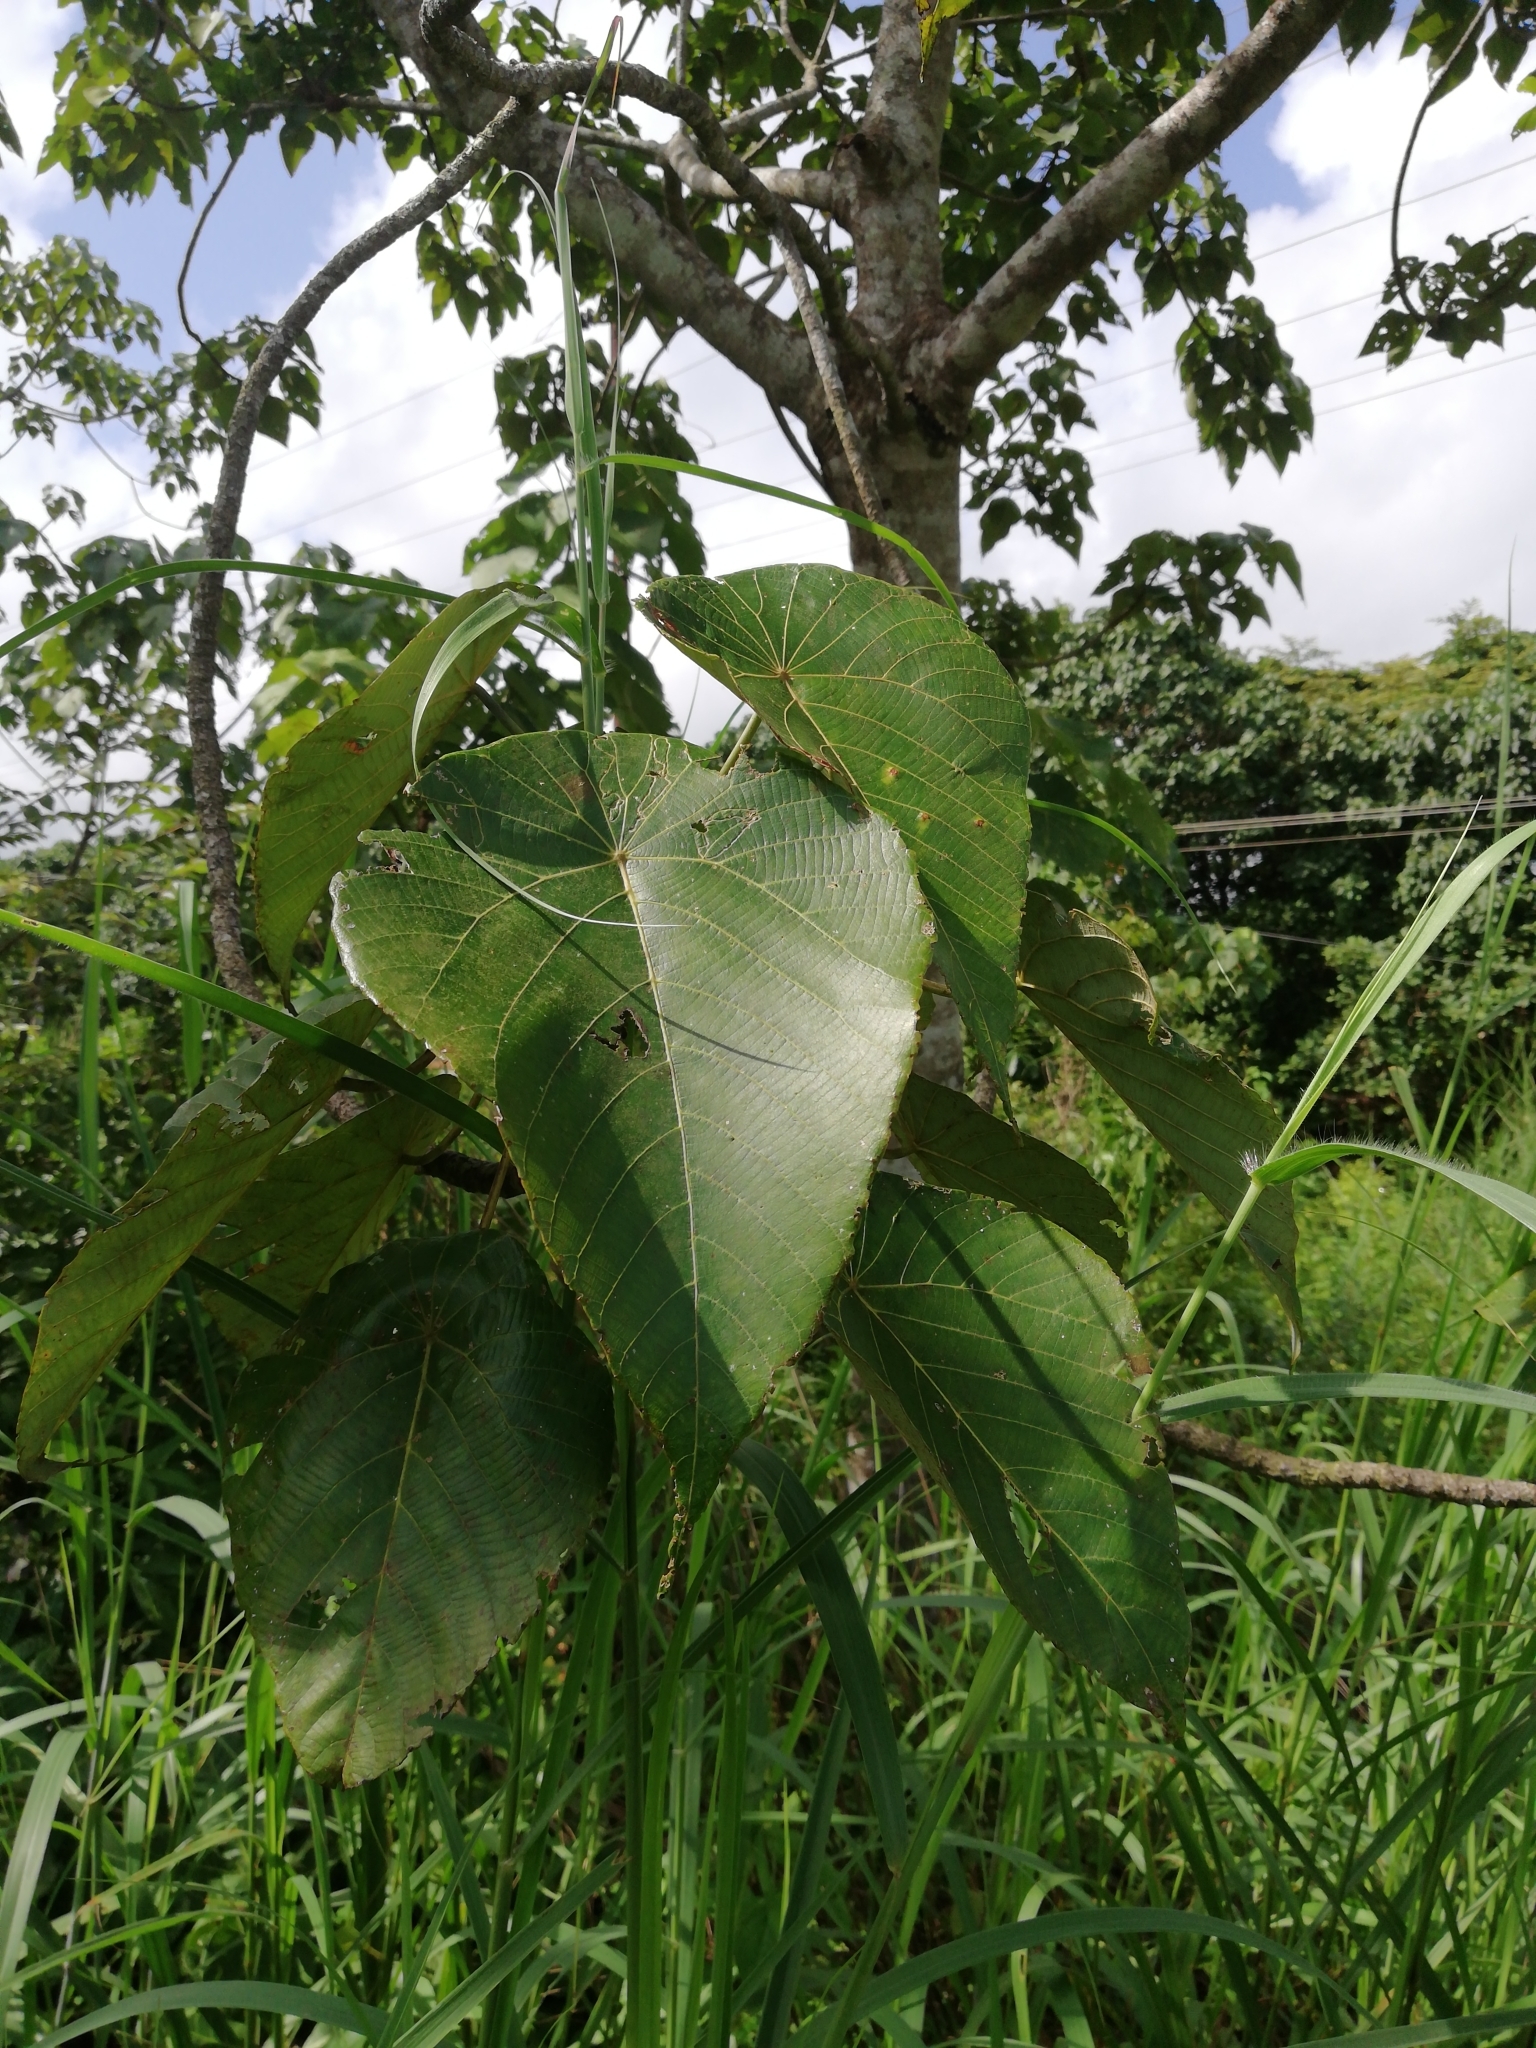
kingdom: Plantae
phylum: Tracheophyta
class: Magnoliopsida
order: Malpighiales
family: Euphorbiaceae
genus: Macaranga
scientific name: Macaranga peltata
